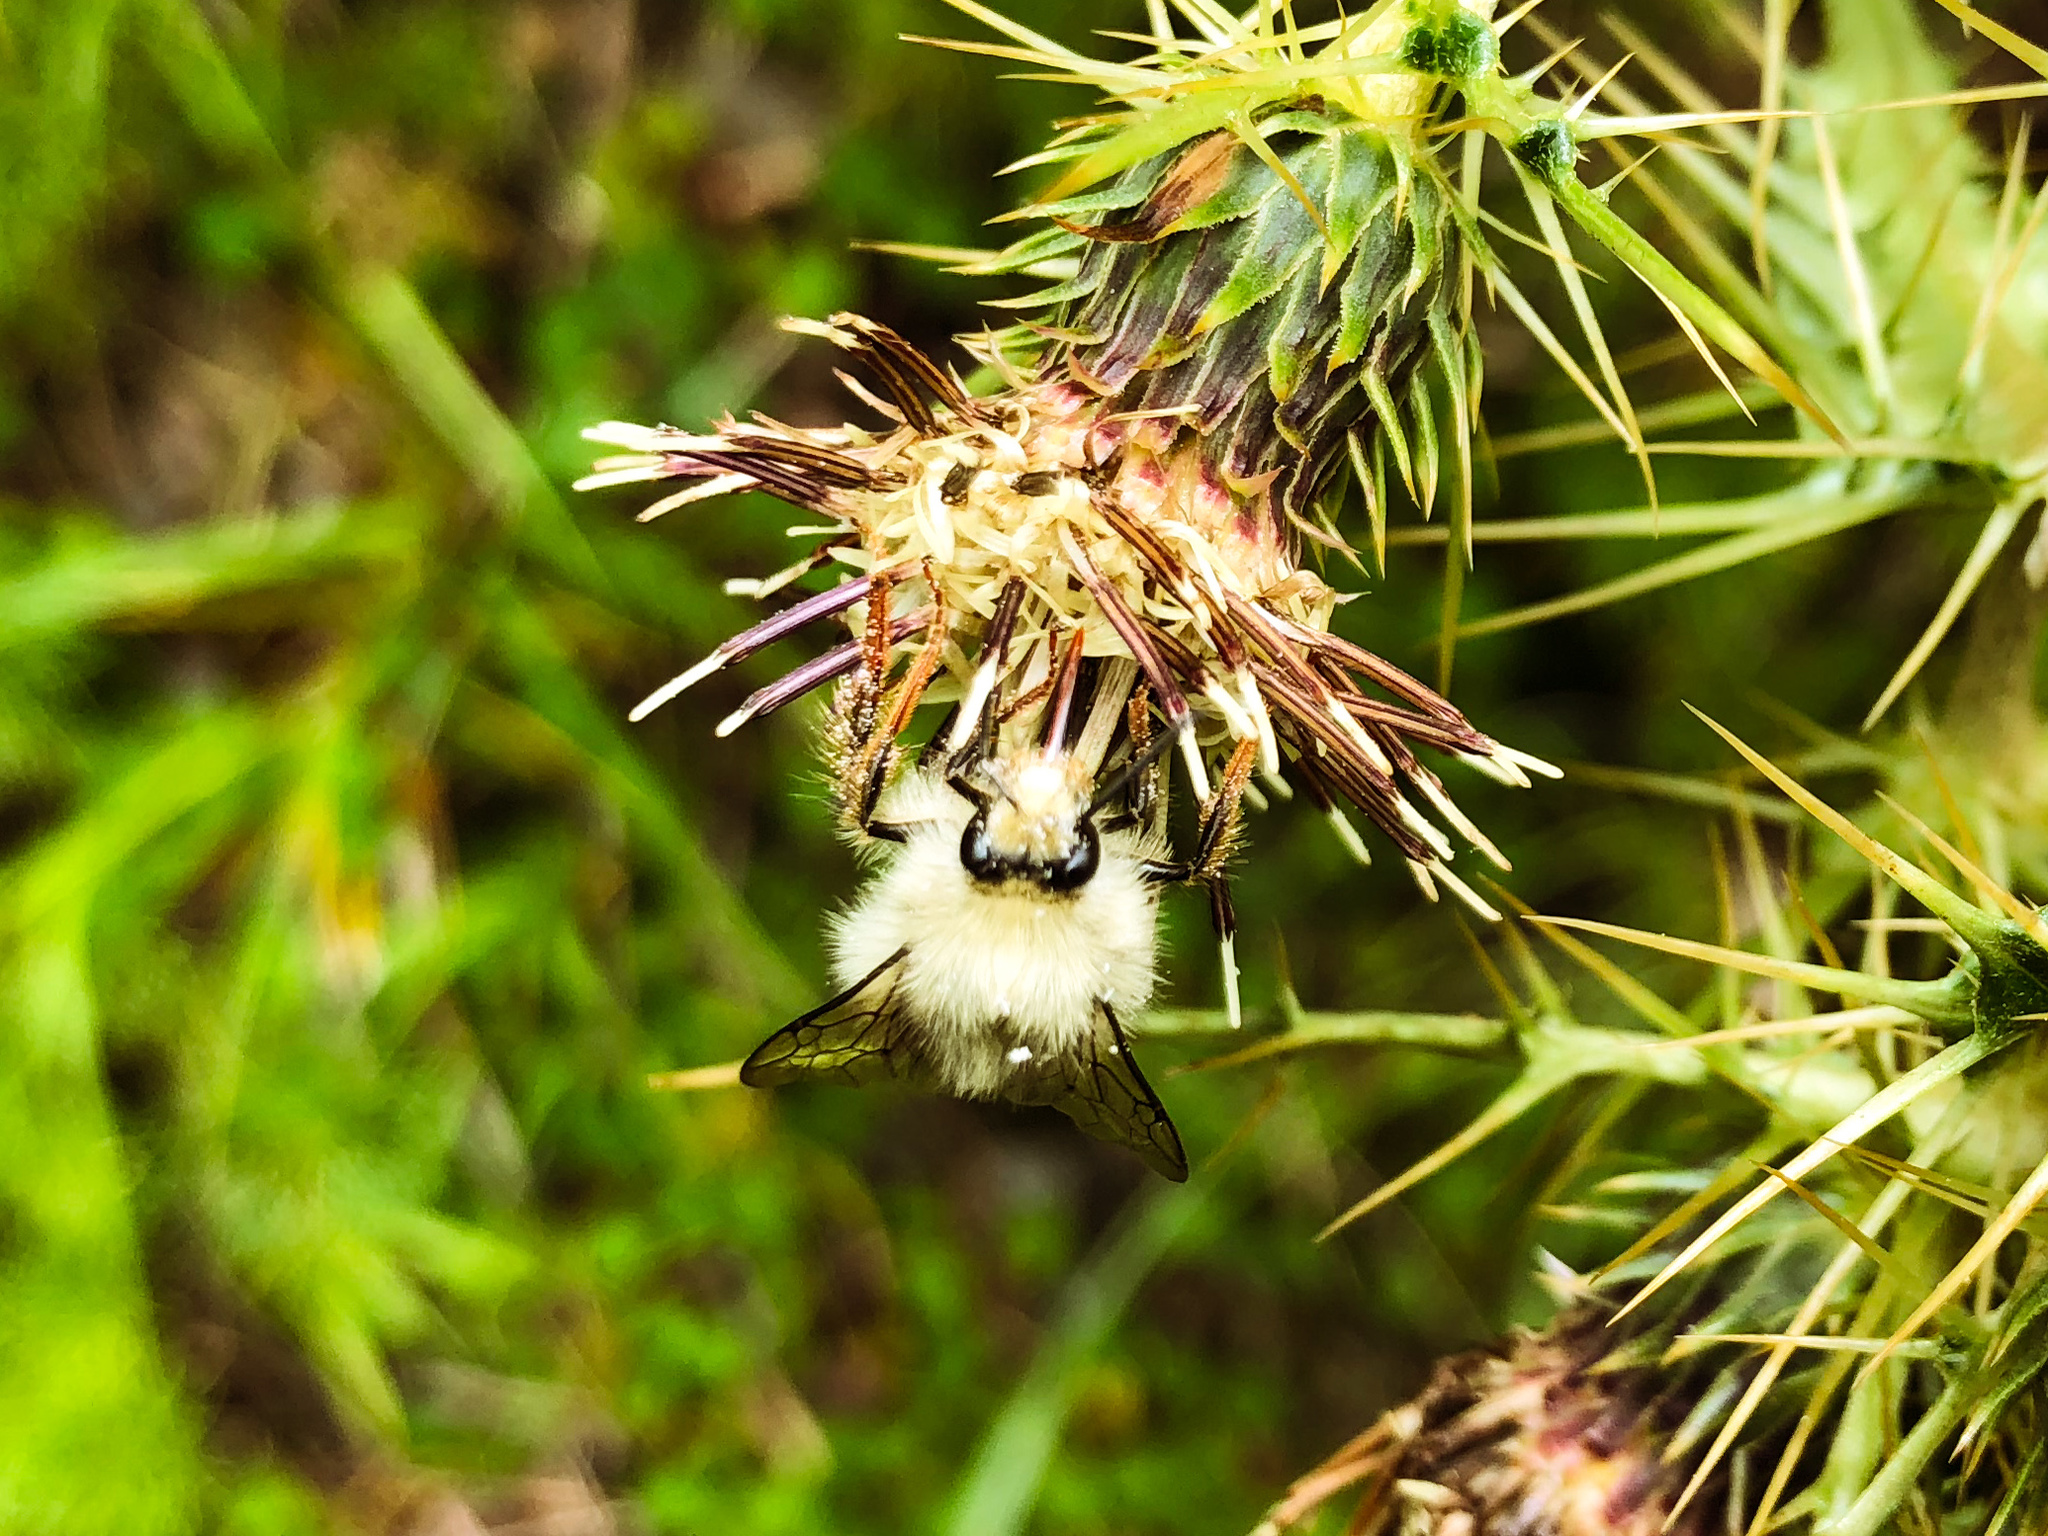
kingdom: Animalia
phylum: Arthropoda
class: Insecta
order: Hymenoptera
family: Apidae
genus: Bombus
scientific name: Bombus sonani
